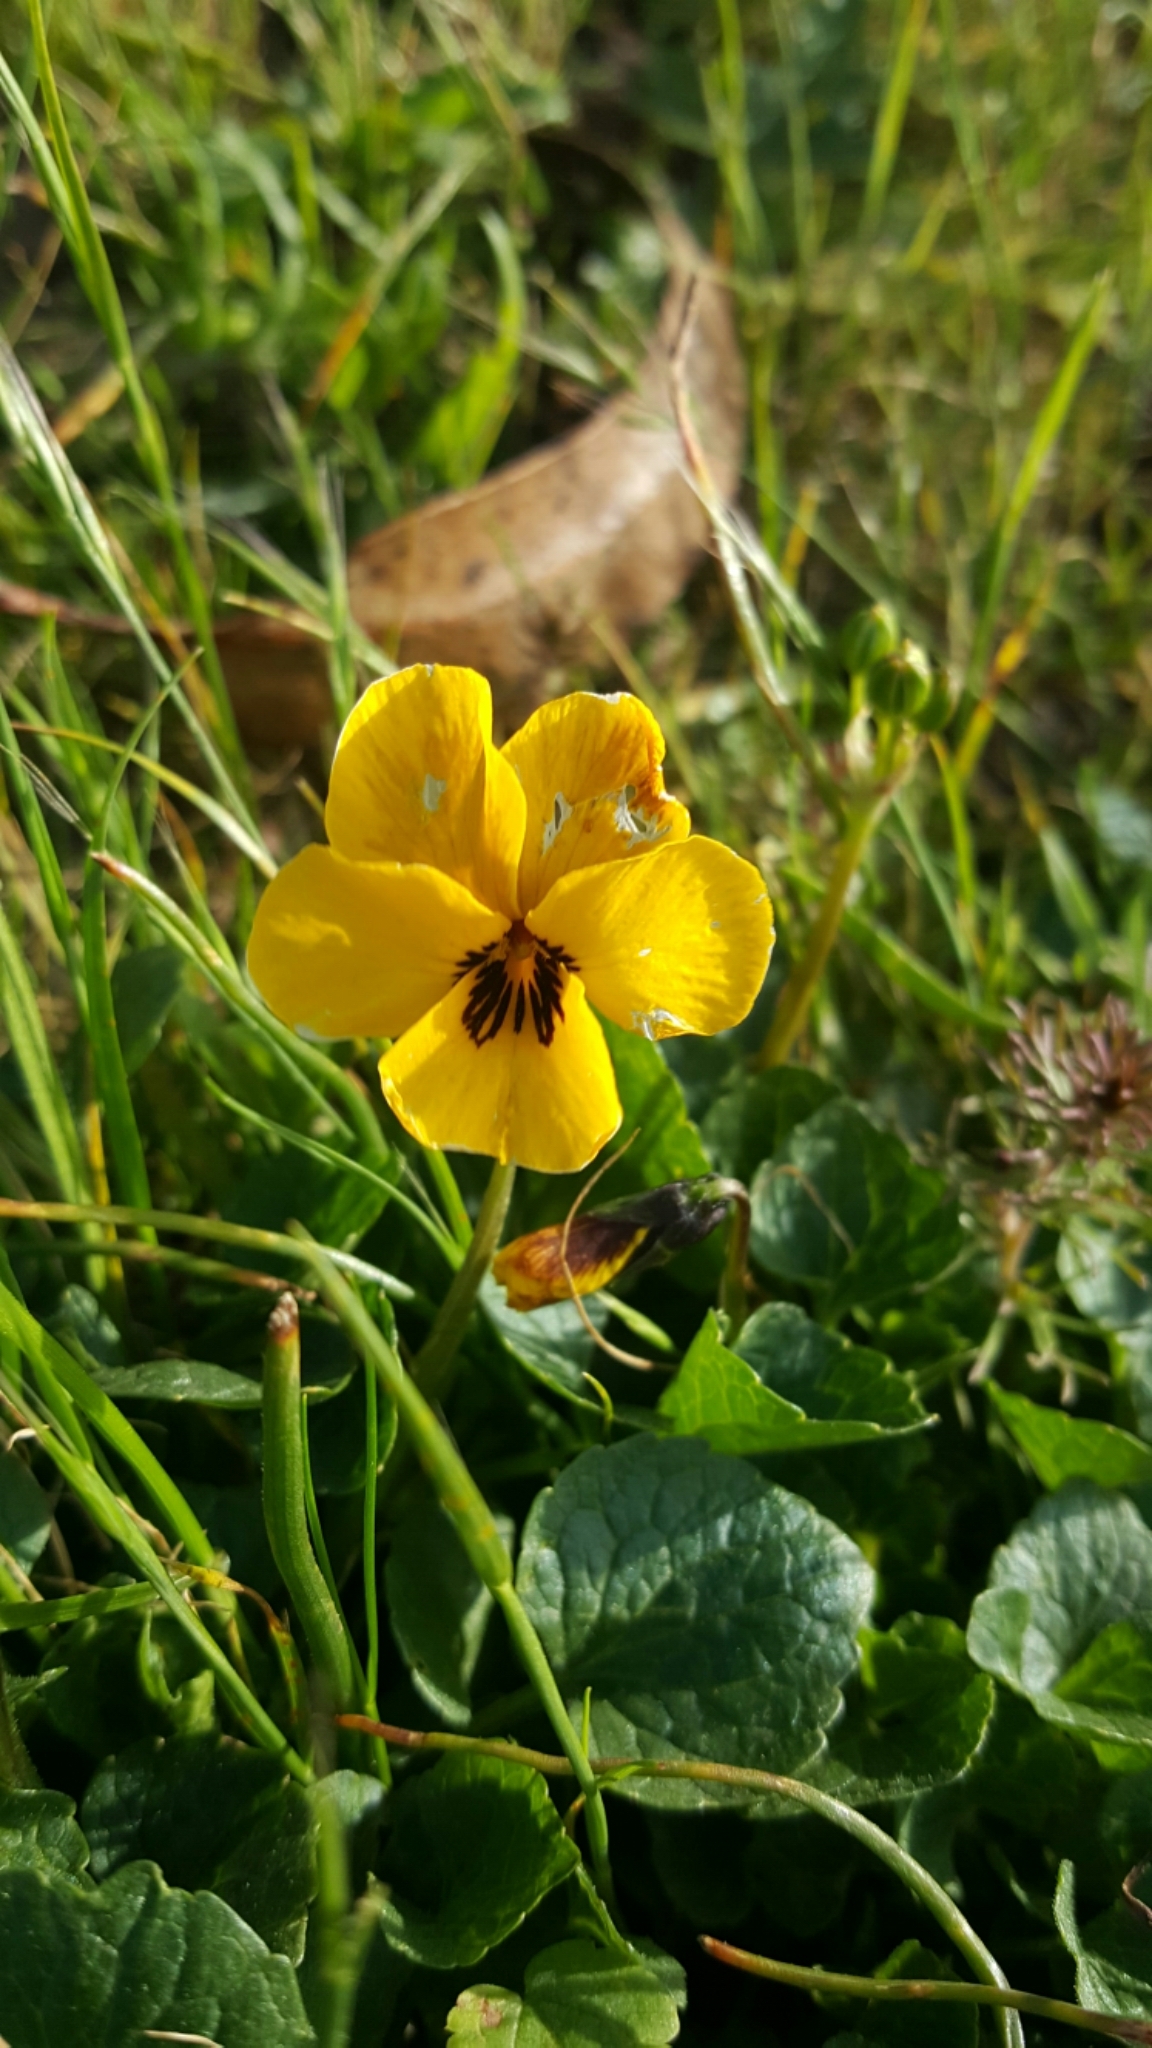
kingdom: Plantae
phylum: Tracheophyta
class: Magnoliopsida
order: Malpighiales
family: Violaceae
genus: Viola
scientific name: Viola pedunculata
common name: California golden violet
